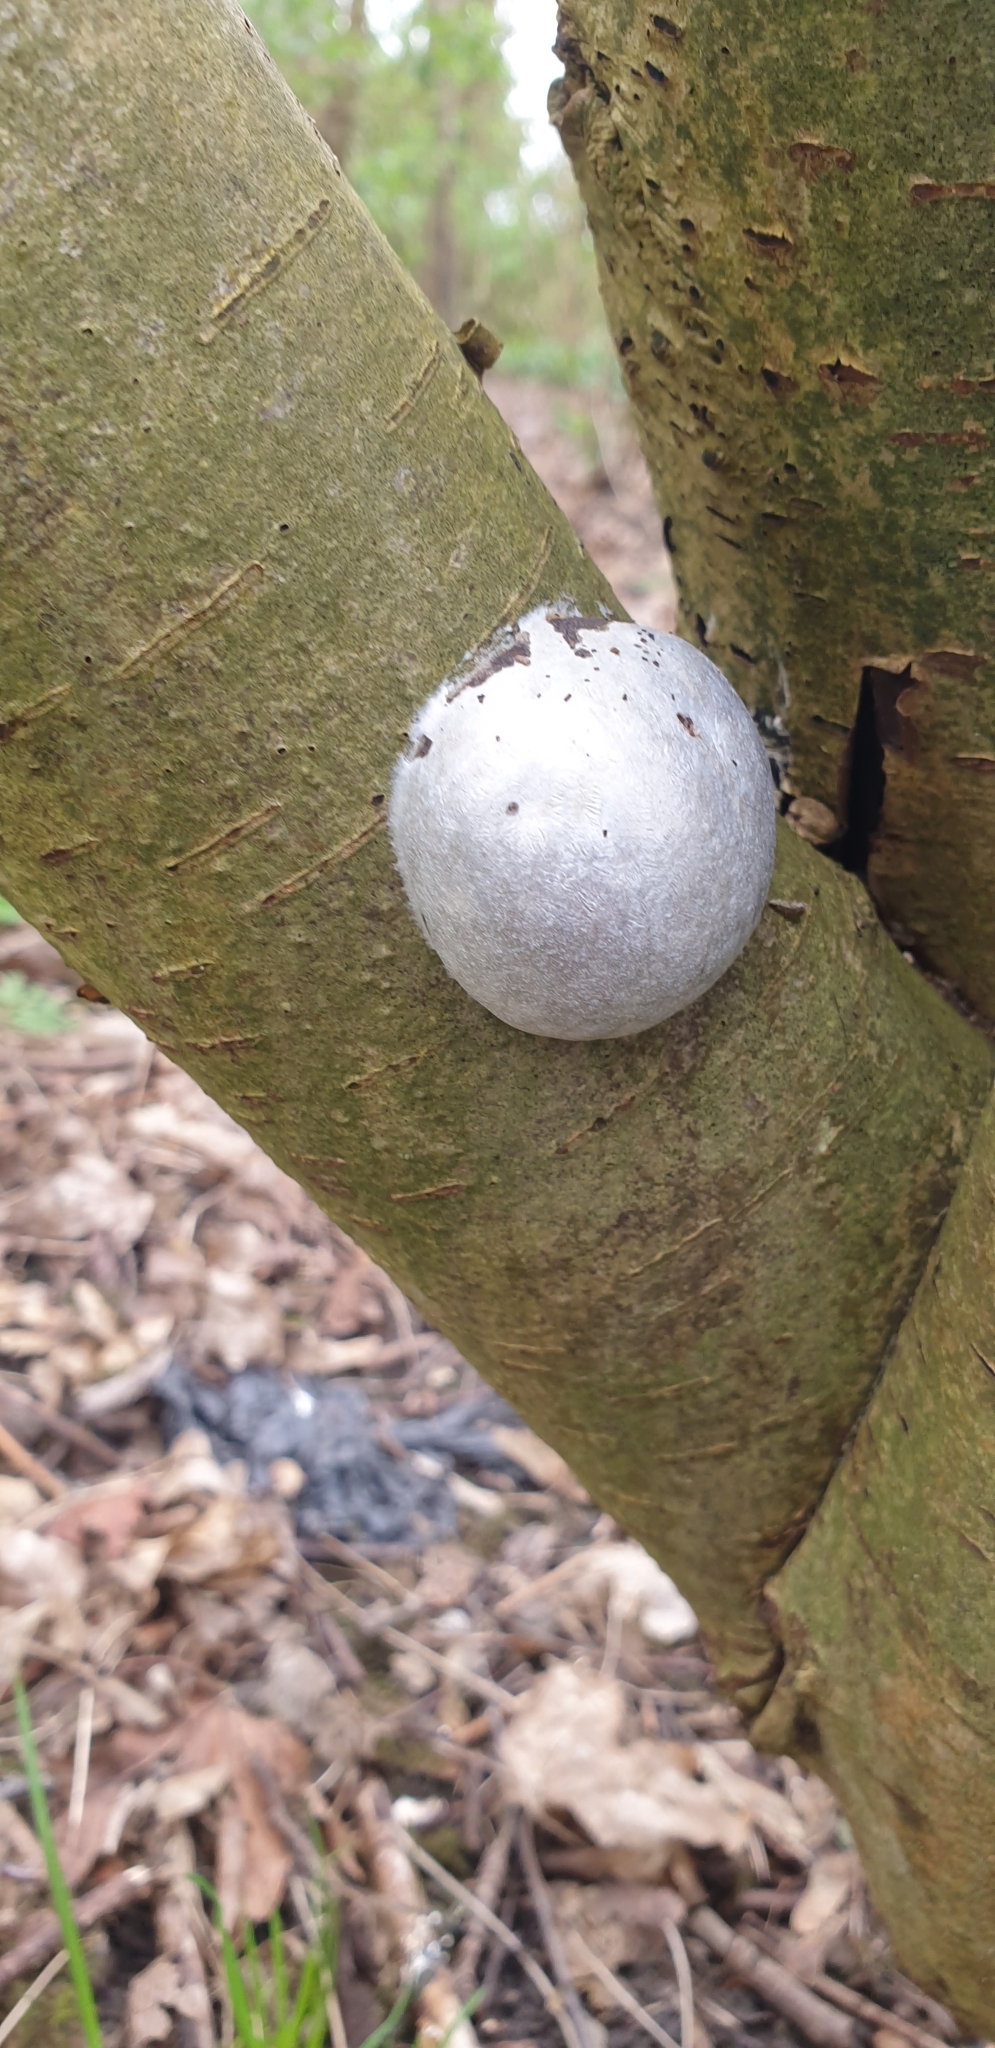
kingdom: Protozoa
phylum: Mycetozoa
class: Myxomycetes
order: Cribrariales
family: Tubiferaceae
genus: Reticularia
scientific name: Reticularia lycoperdon
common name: False puffball
